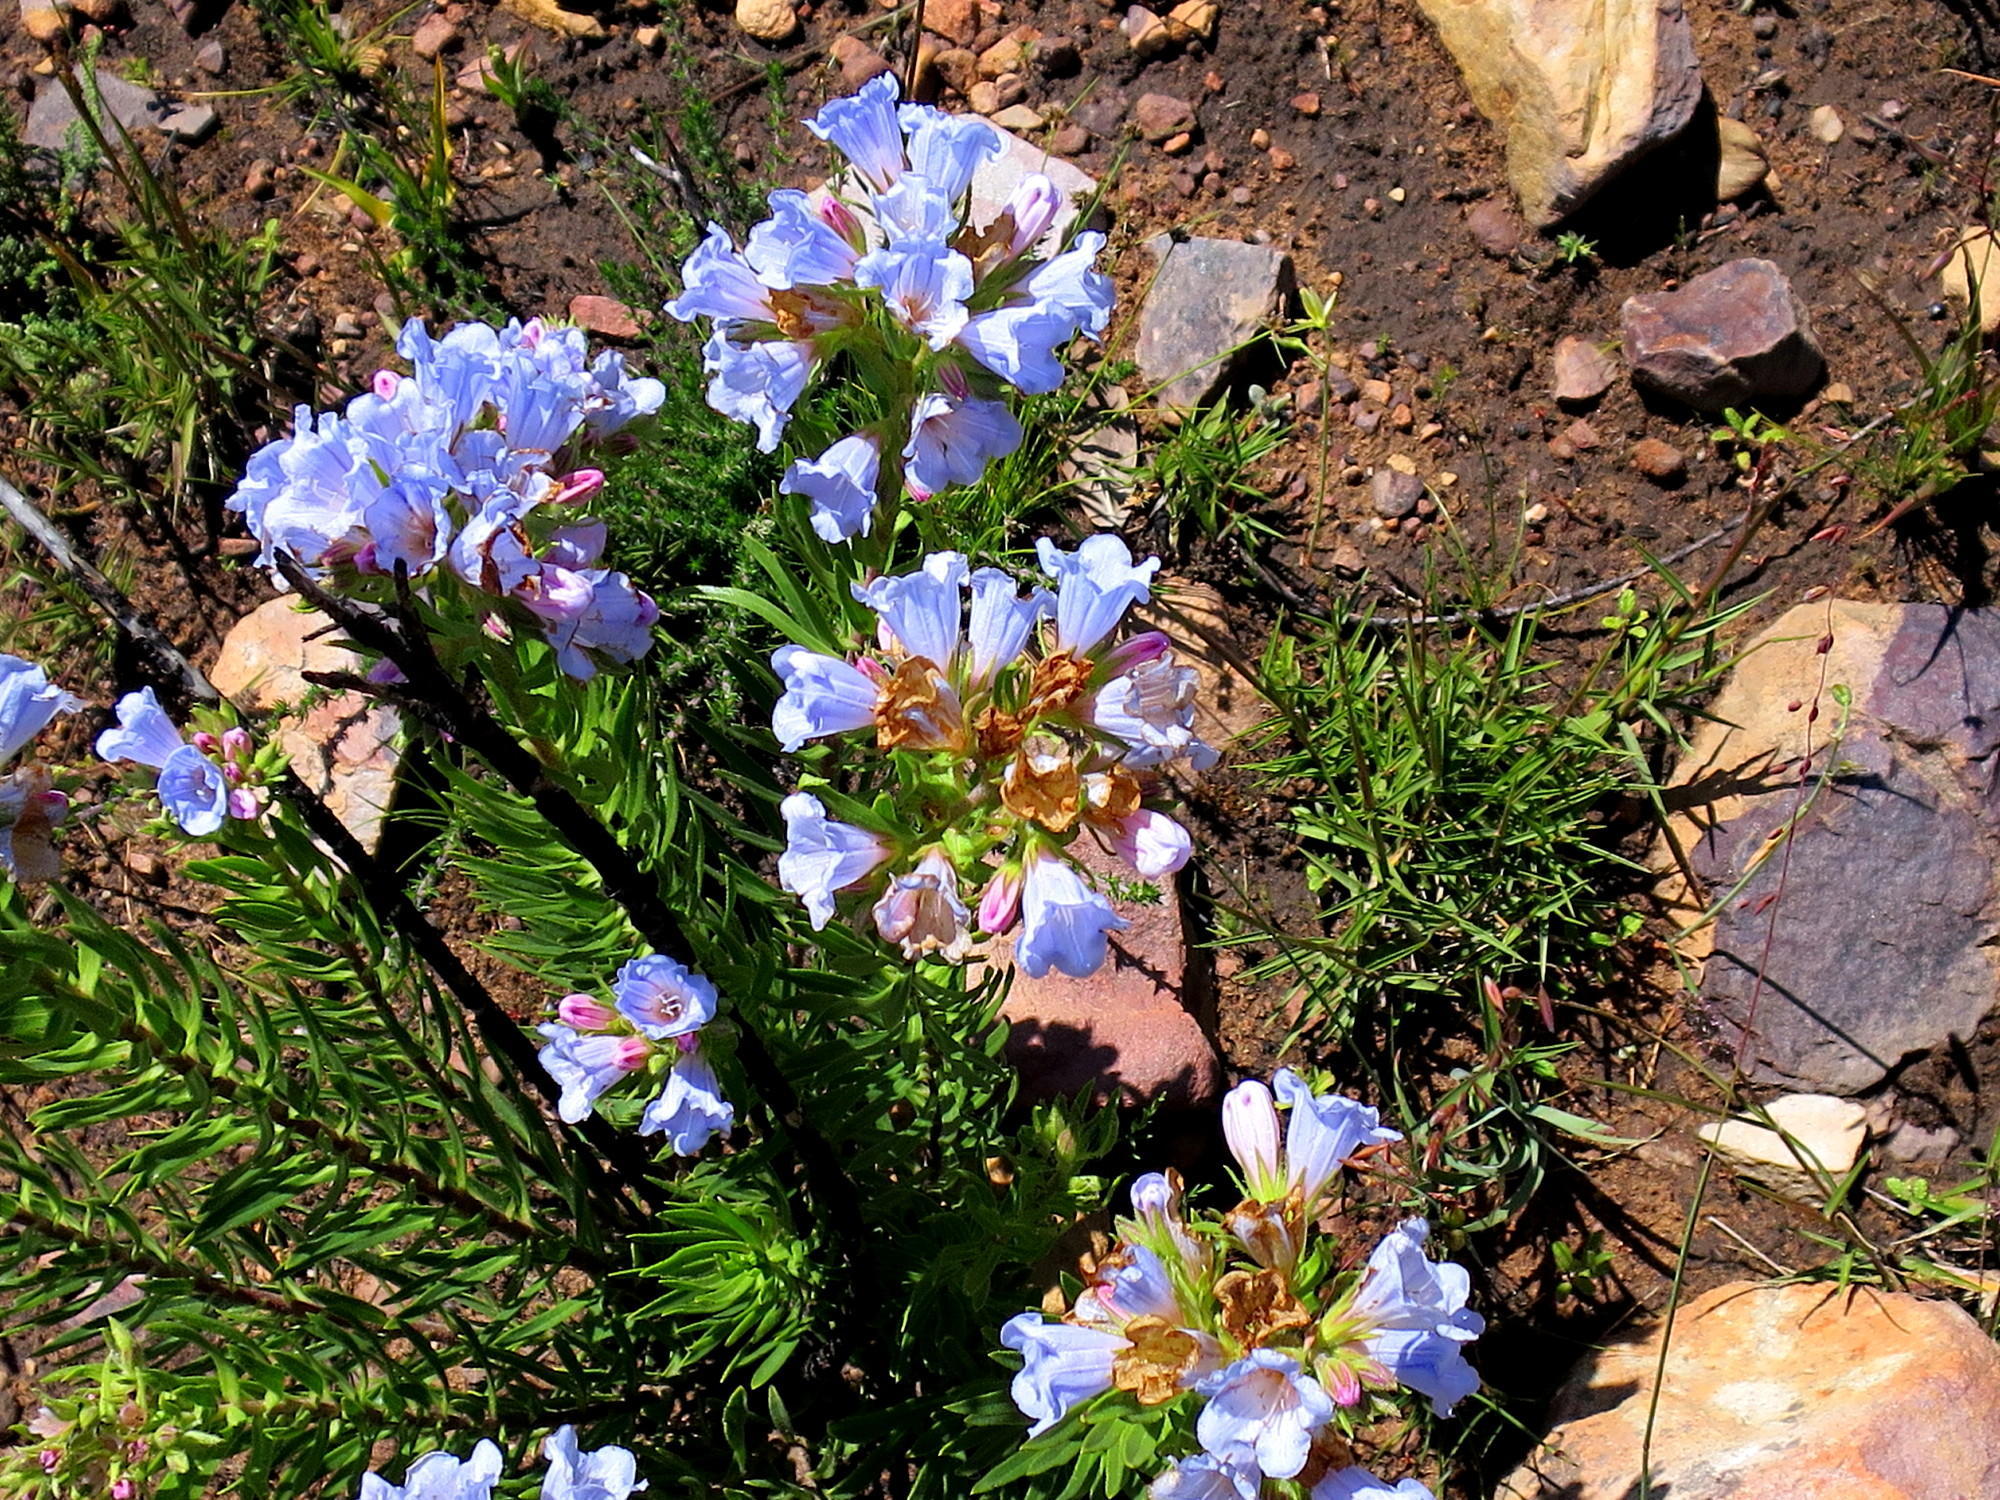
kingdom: Plantae
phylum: Tracheophyta
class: Magnoliopsida
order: Boraginales
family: Boraginaceae
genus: Lobostemon
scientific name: Lobostemon fruticosus
